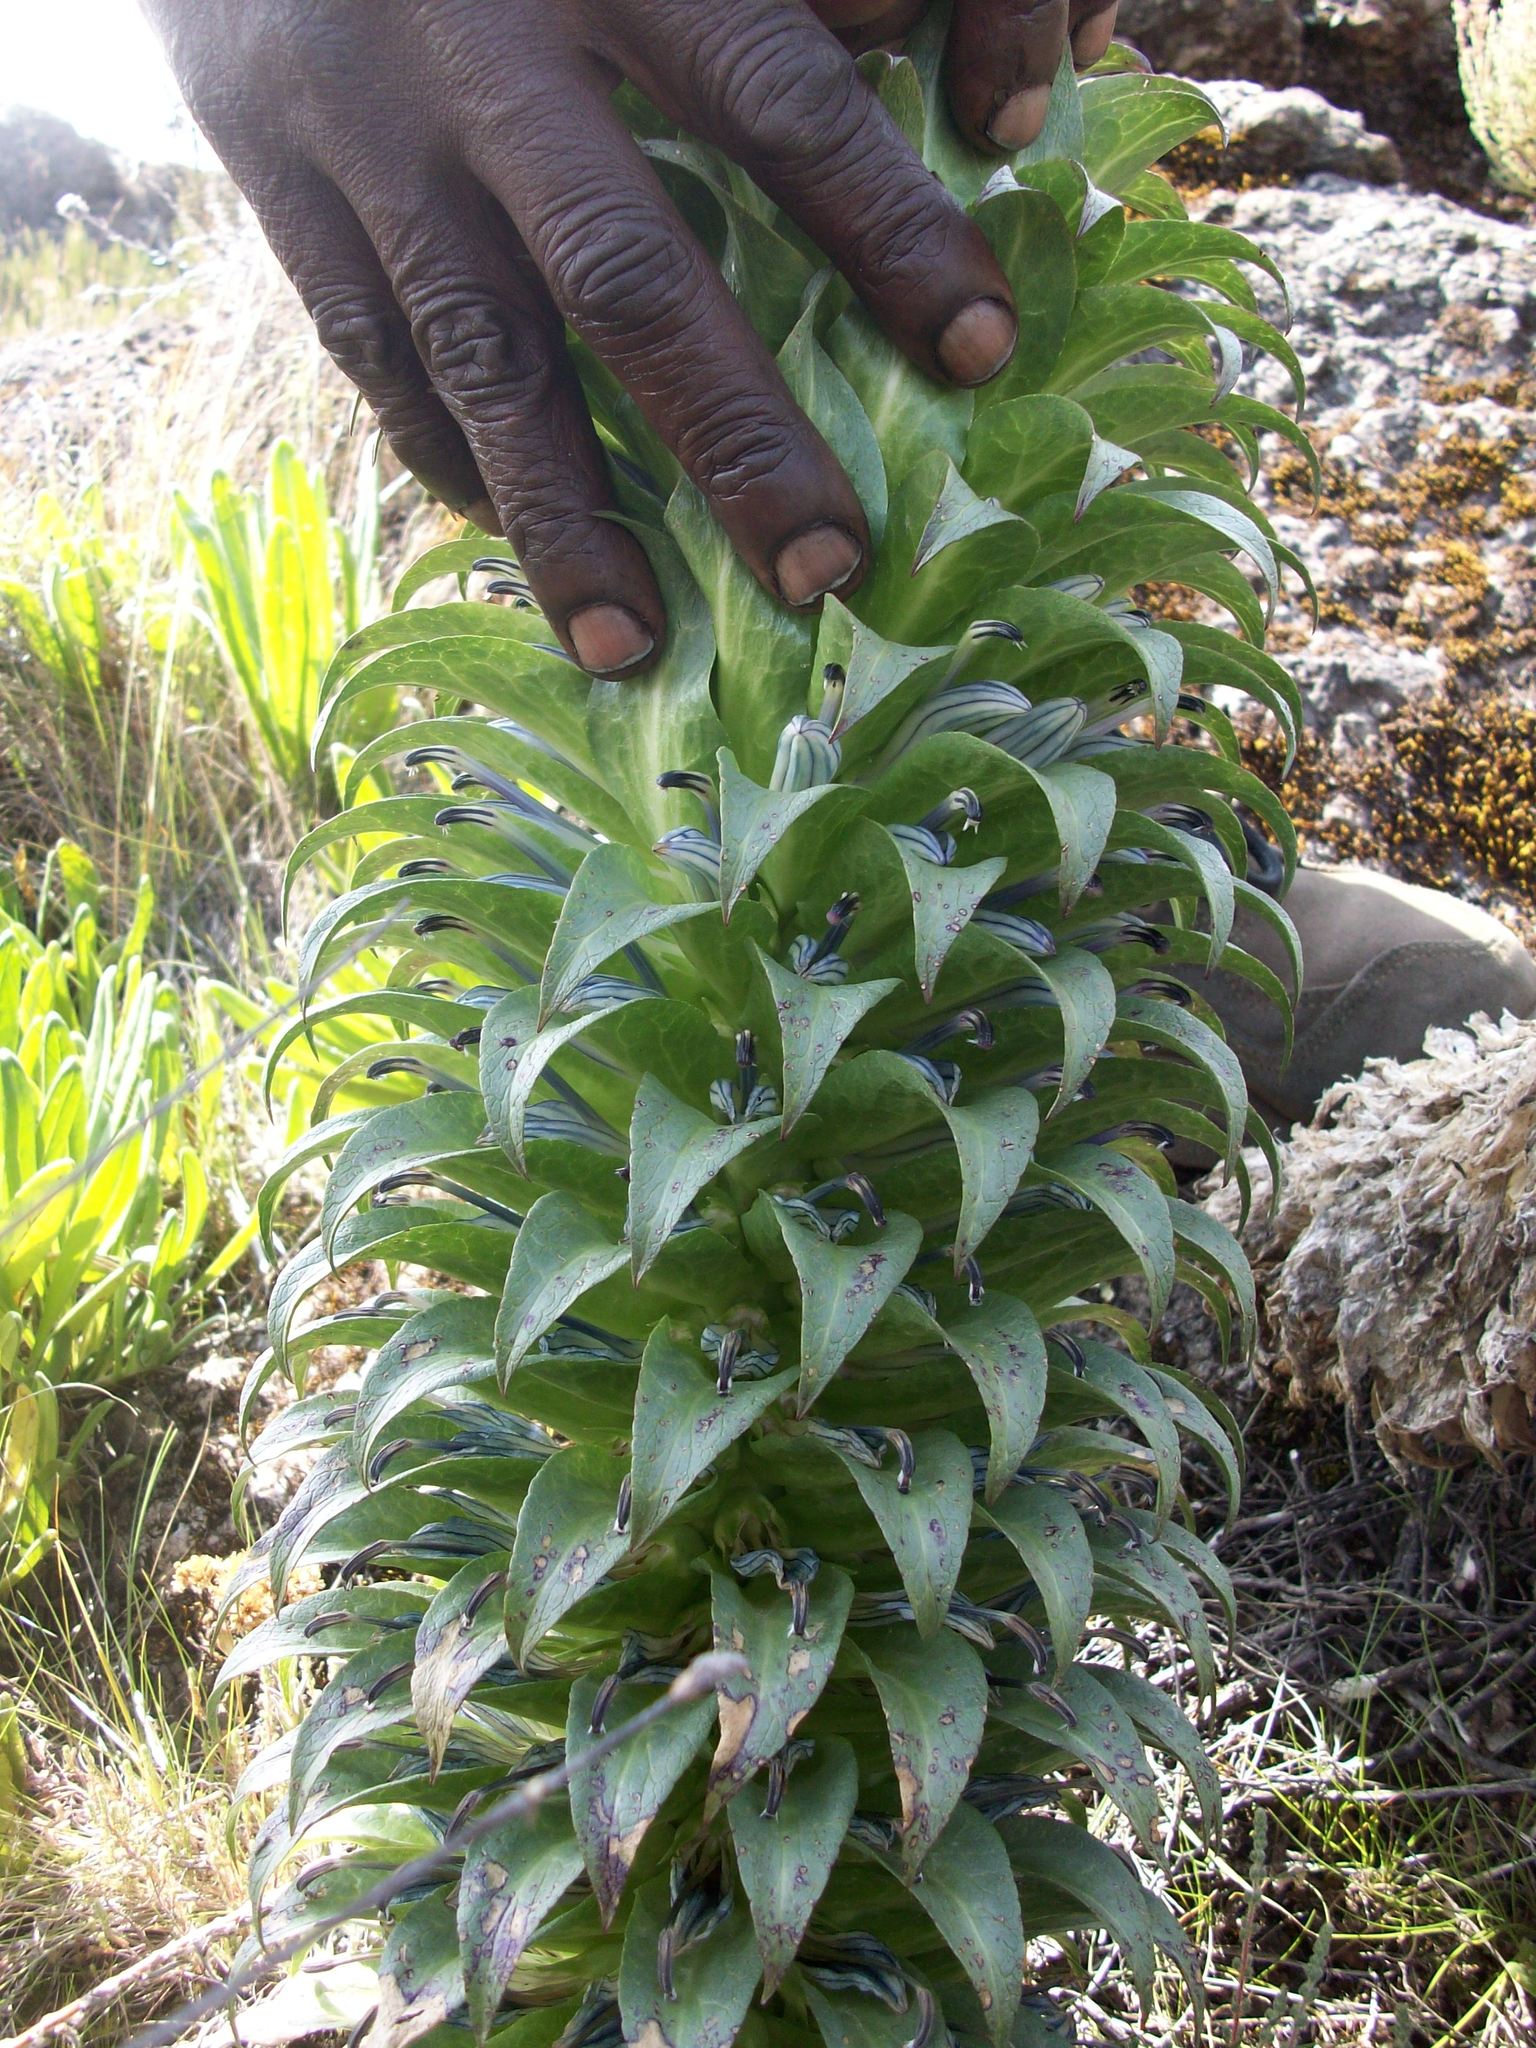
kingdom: Plantae
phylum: Tracheophyta
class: Magnoliopsida
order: Asterales
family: Campanulaceae
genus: Lobelia
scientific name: Lobelia deckenii
